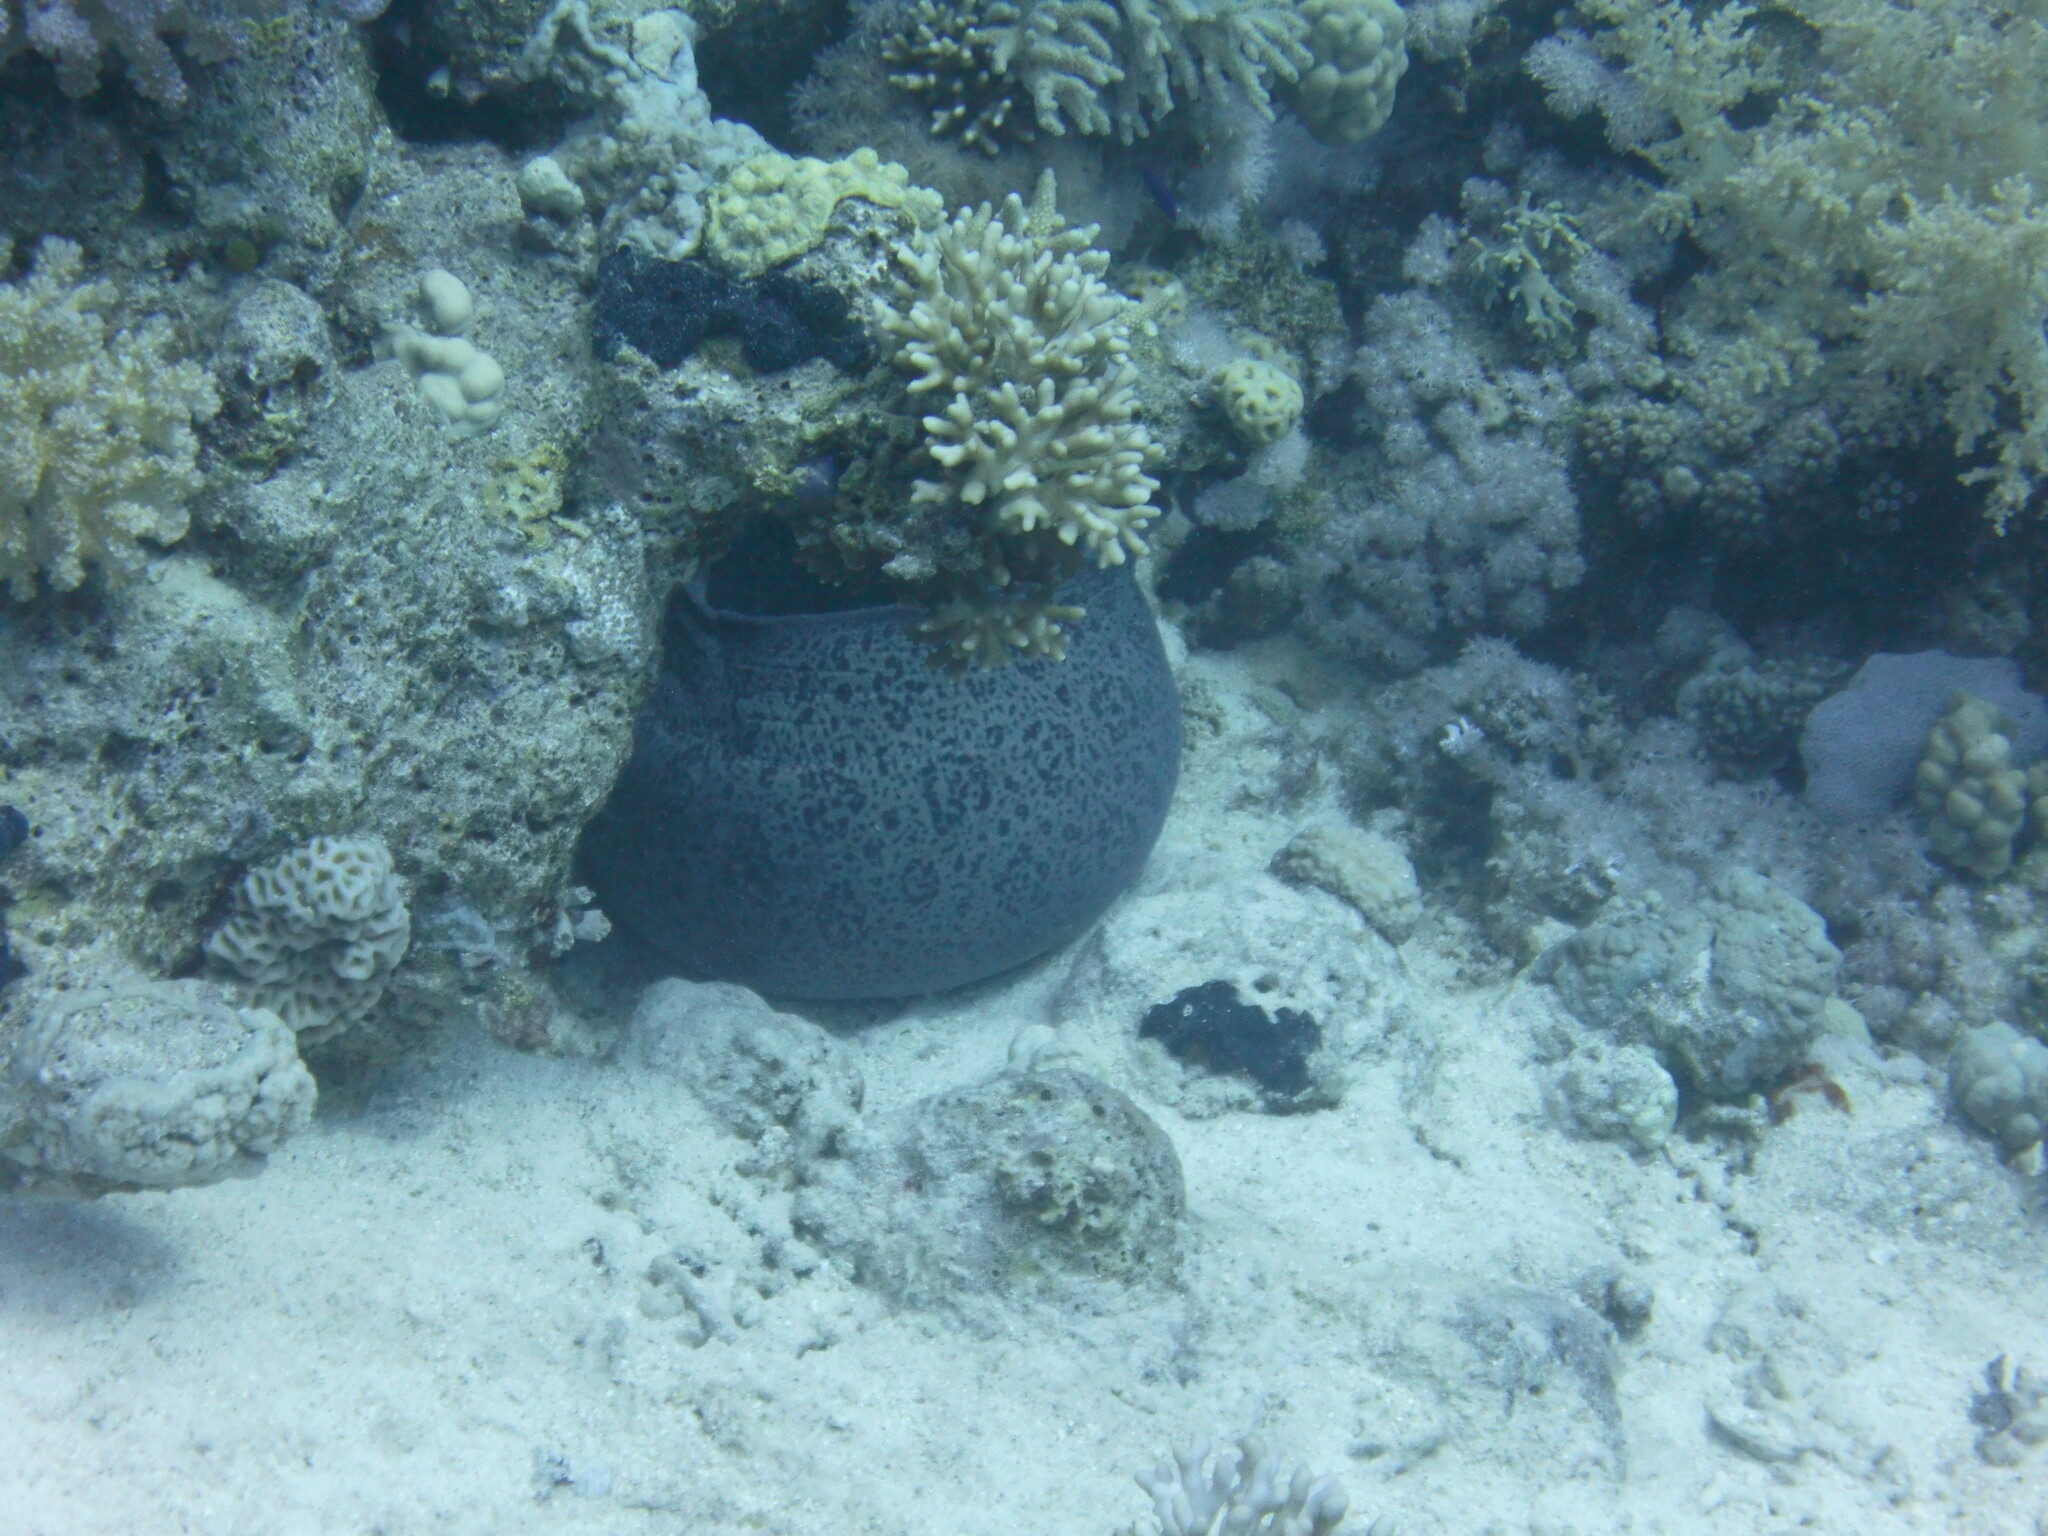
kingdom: Animalia
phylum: Chordata
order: Anguilliformes
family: Muraenidae
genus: Gymnothorax
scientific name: Gymnothorax javanicus
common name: Giant moray
